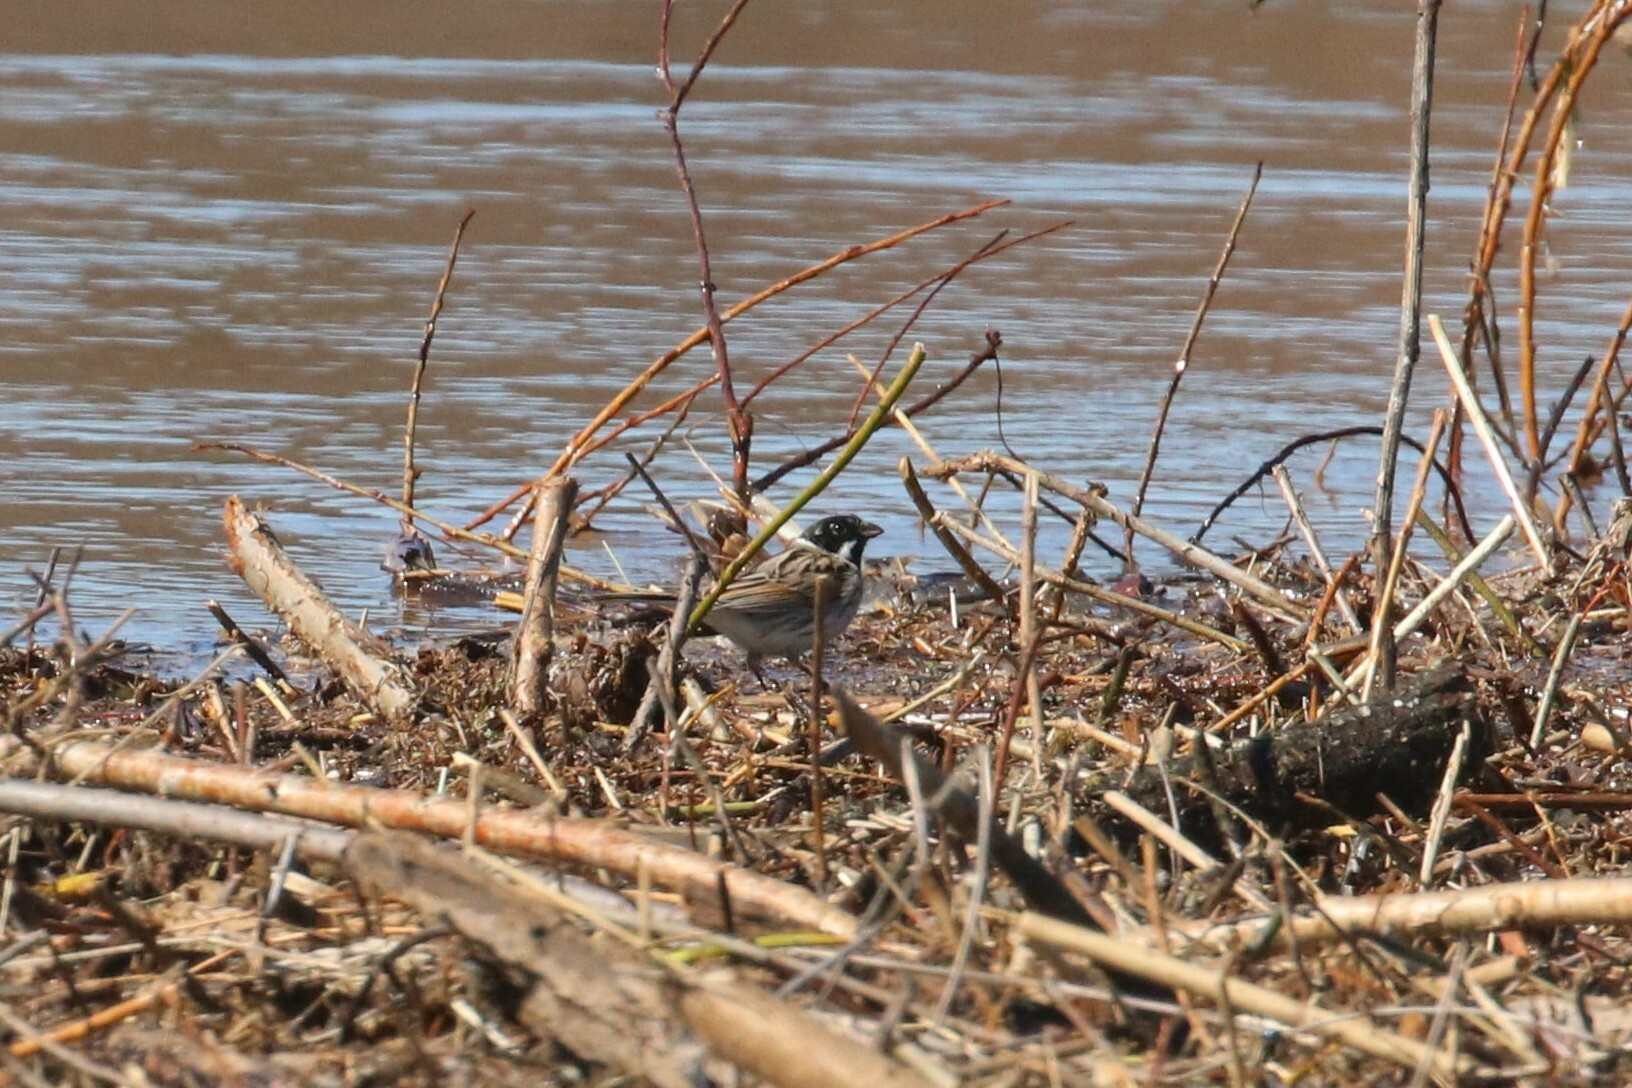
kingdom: Animalia
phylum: Chordata
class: Aves
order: Passeriformes
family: Emberizidae
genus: Emberiza
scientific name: Emberiza schoeniclus
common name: Reed bunting
